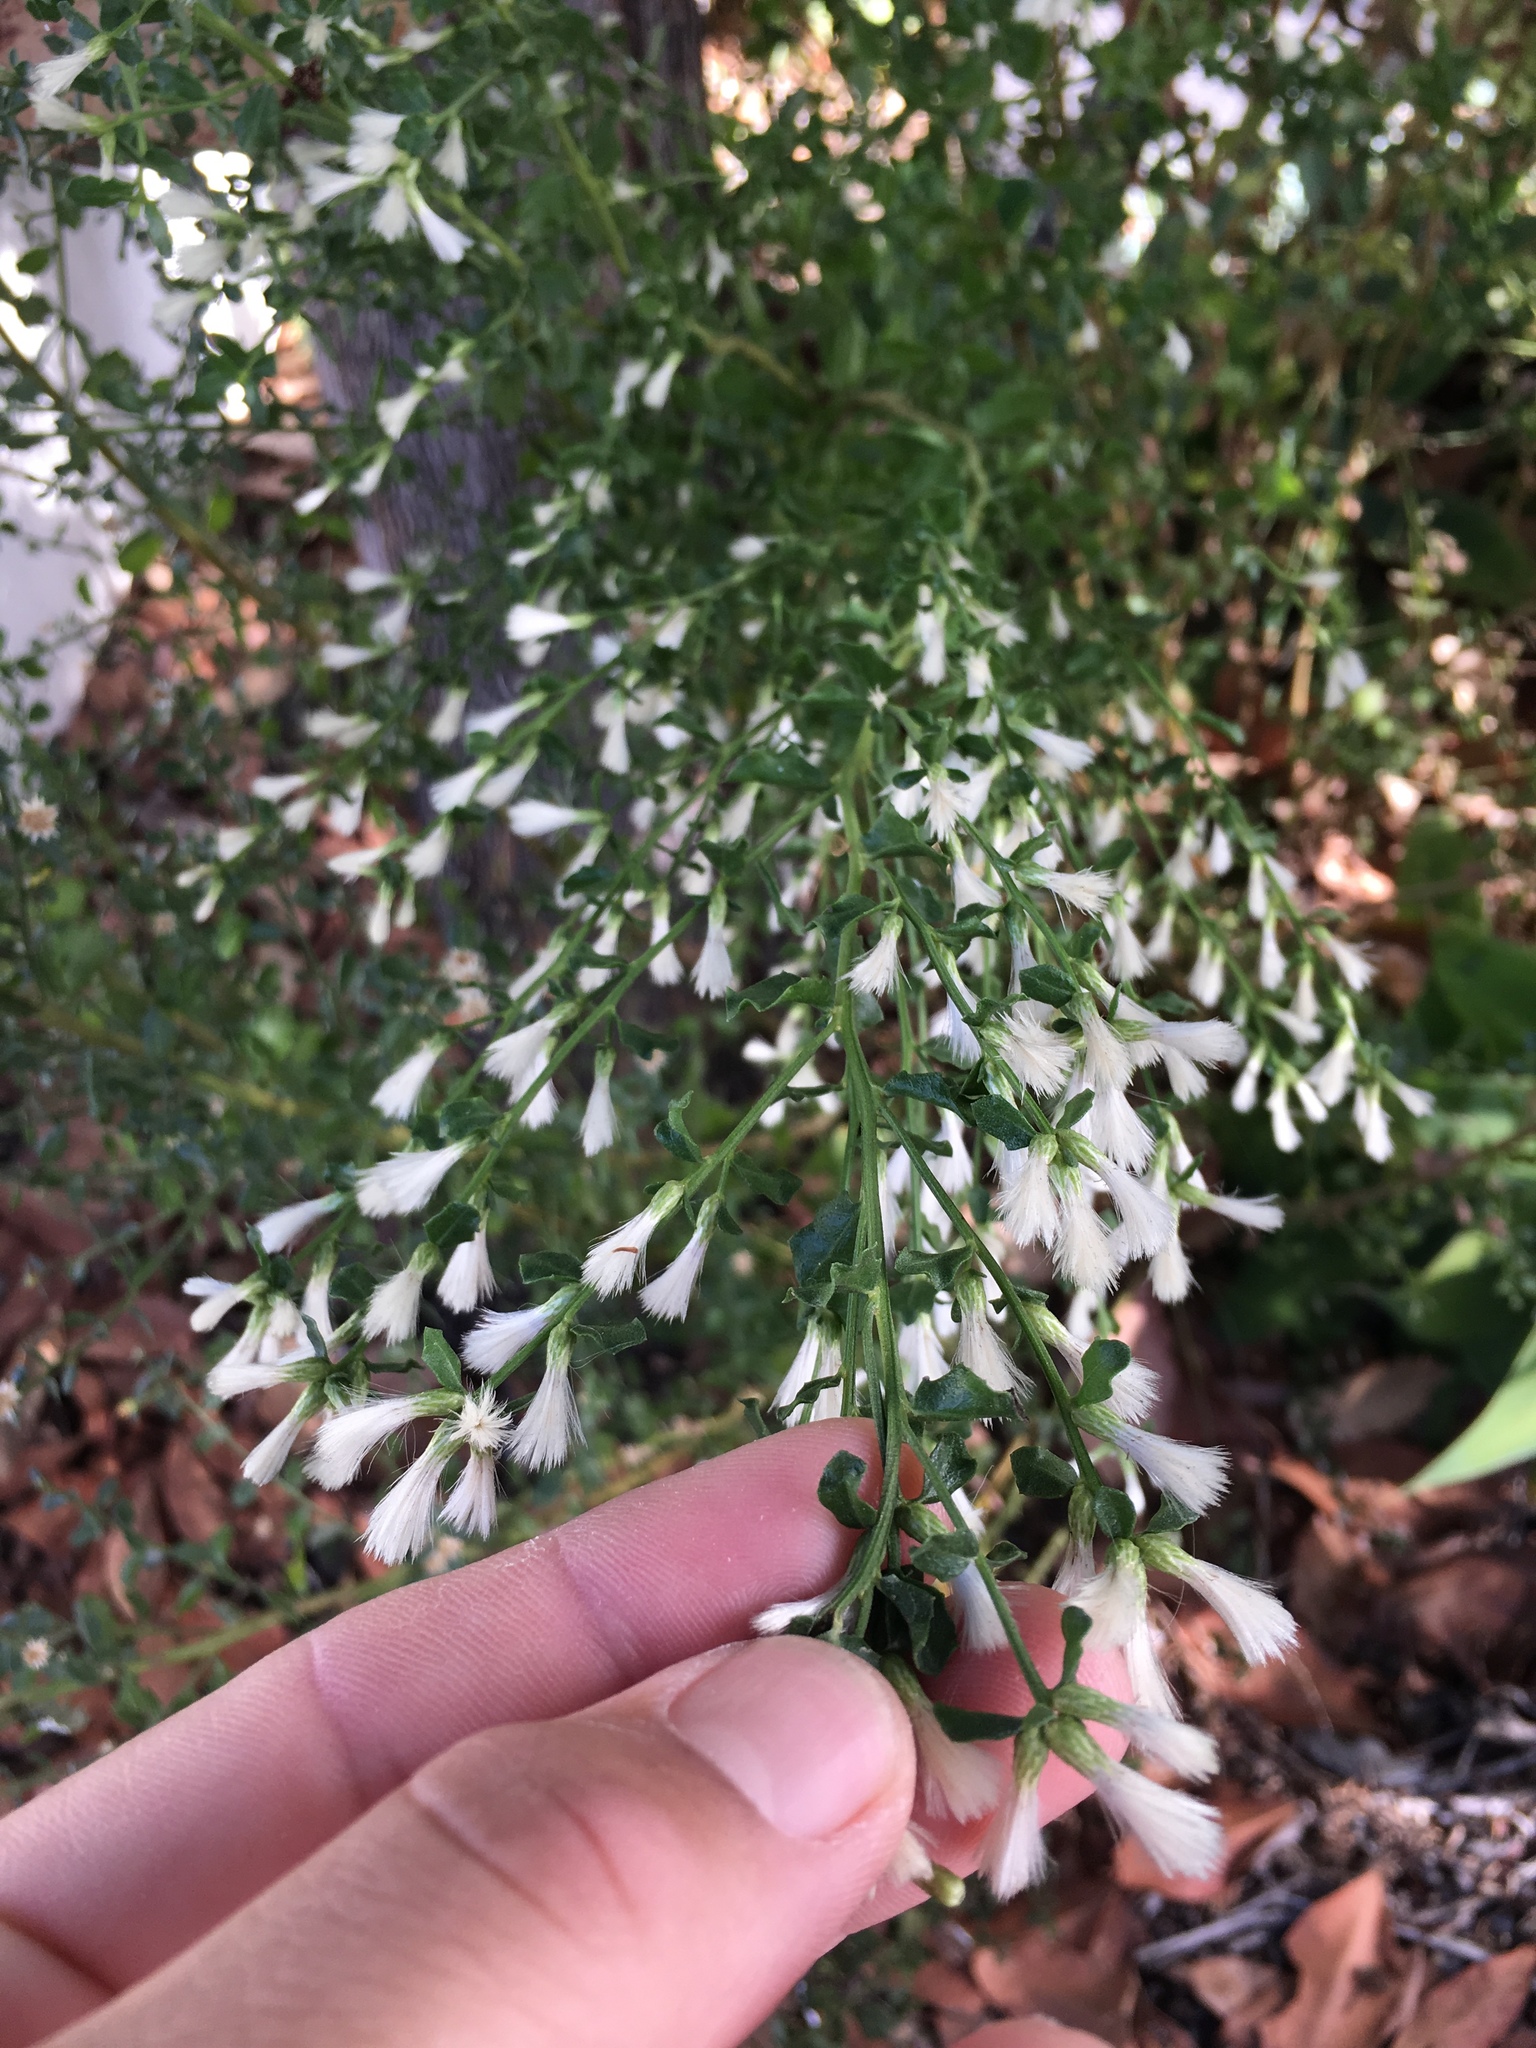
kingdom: Plantae
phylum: Tracheophyta
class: Magnoliopsida
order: Asterales
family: Asteraceae
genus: Baccharis
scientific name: Baccharis pilularis
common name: Coyotebrush
